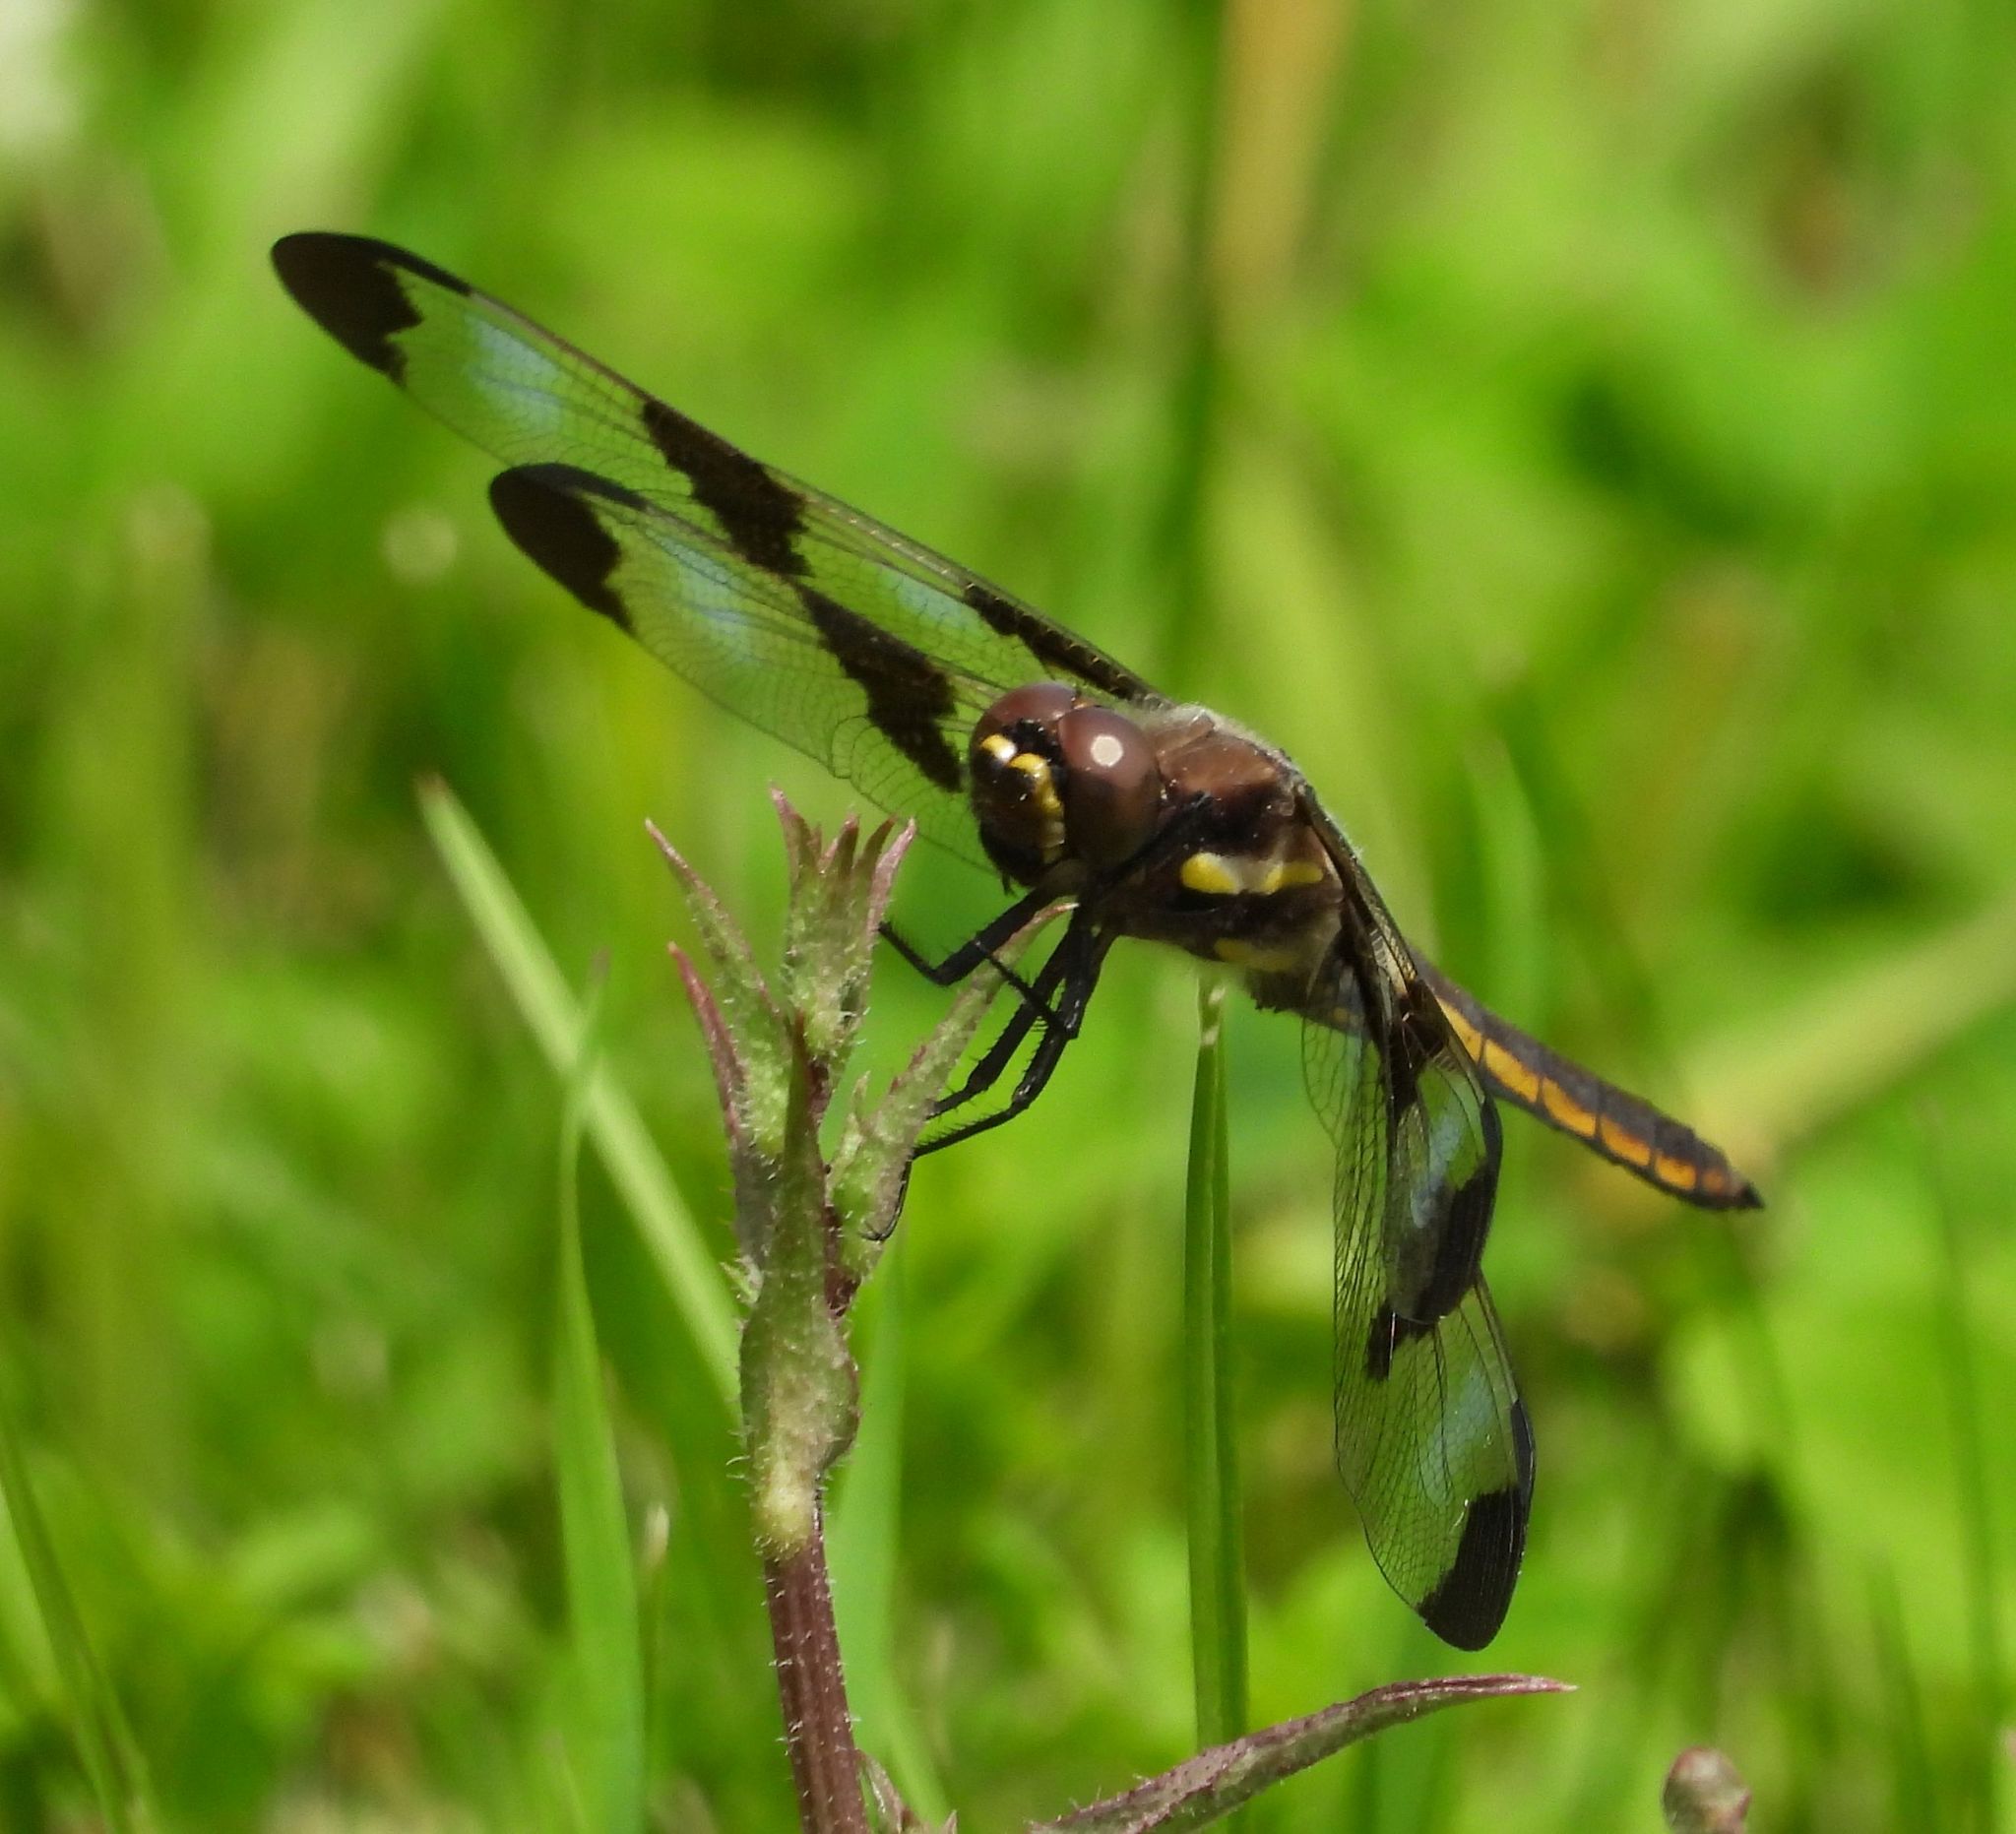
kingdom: Animalia
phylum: Arthropoda
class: Insecta
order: Odonata
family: Libellulidae
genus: Libellula
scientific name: Libellula pulchella
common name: Twelve-spotted skimmer
